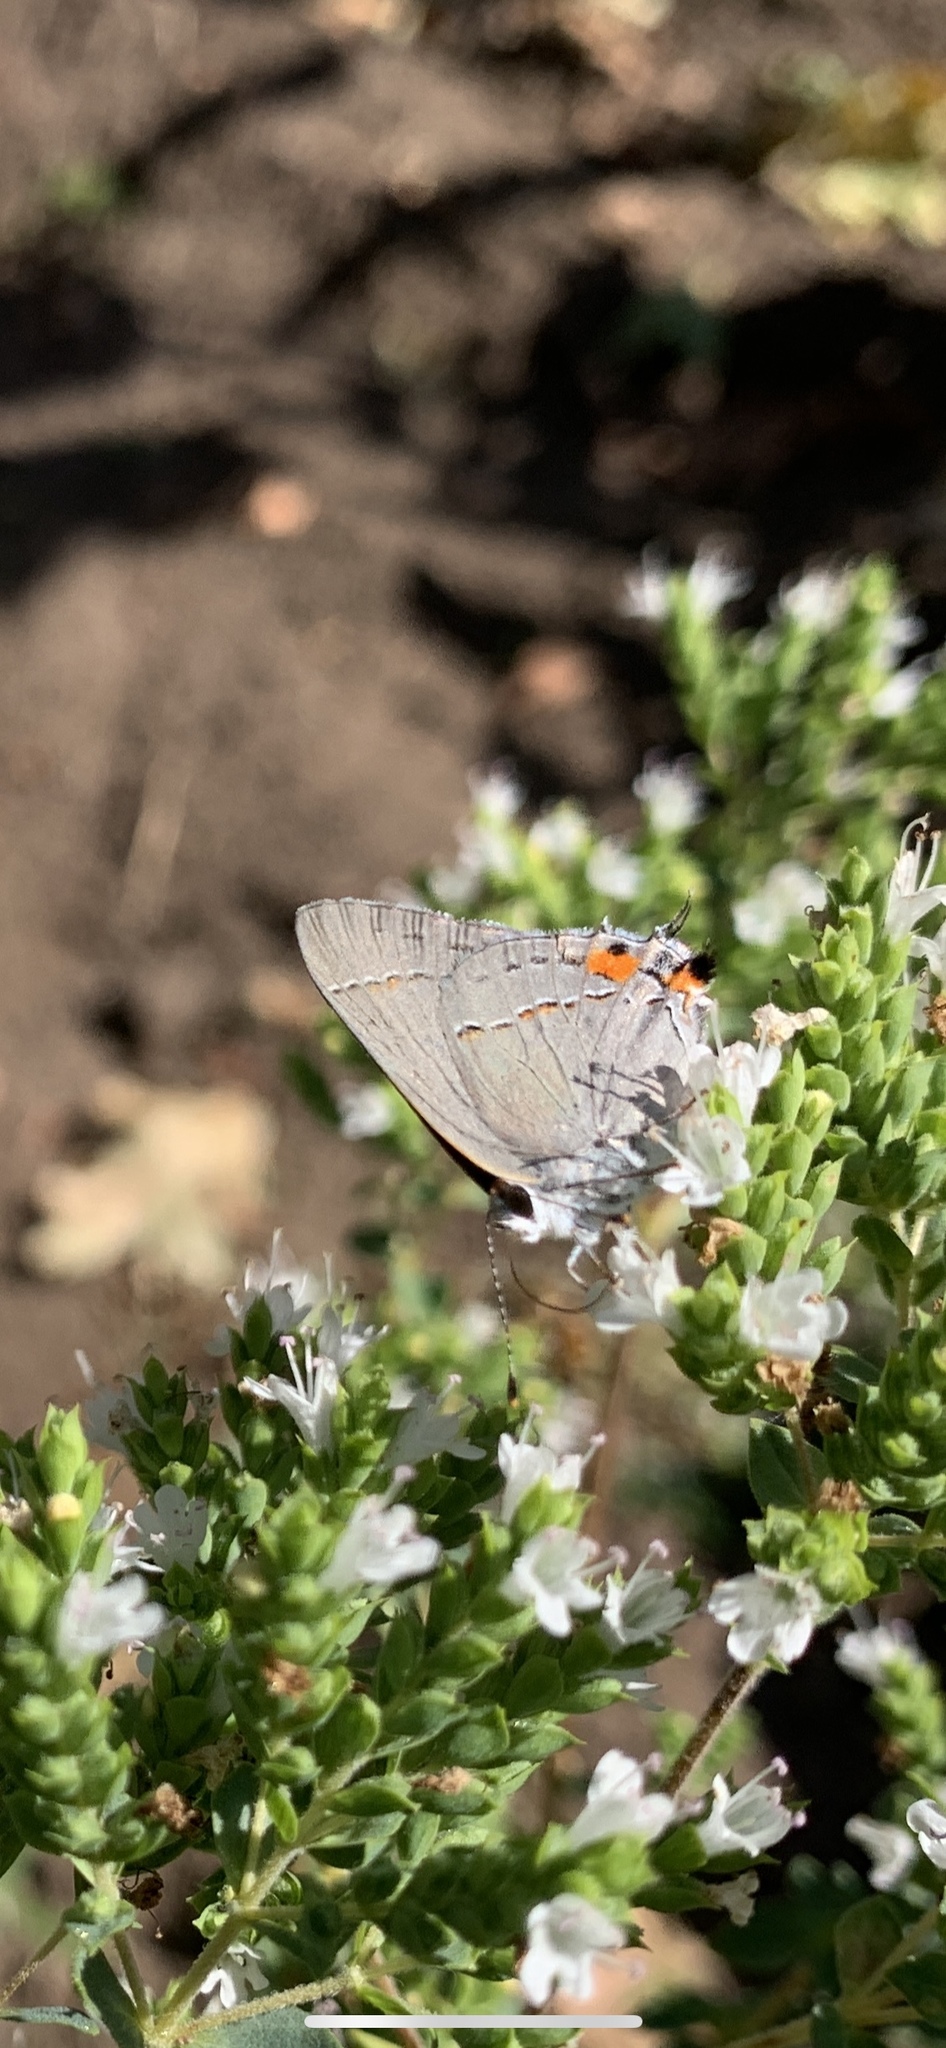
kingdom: Animalia
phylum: Arthropoda
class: Insecta
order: Lepidoptera
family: Lycaenidae
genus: Strymon
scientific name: Strymon melinus
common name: Gray hairstreak
